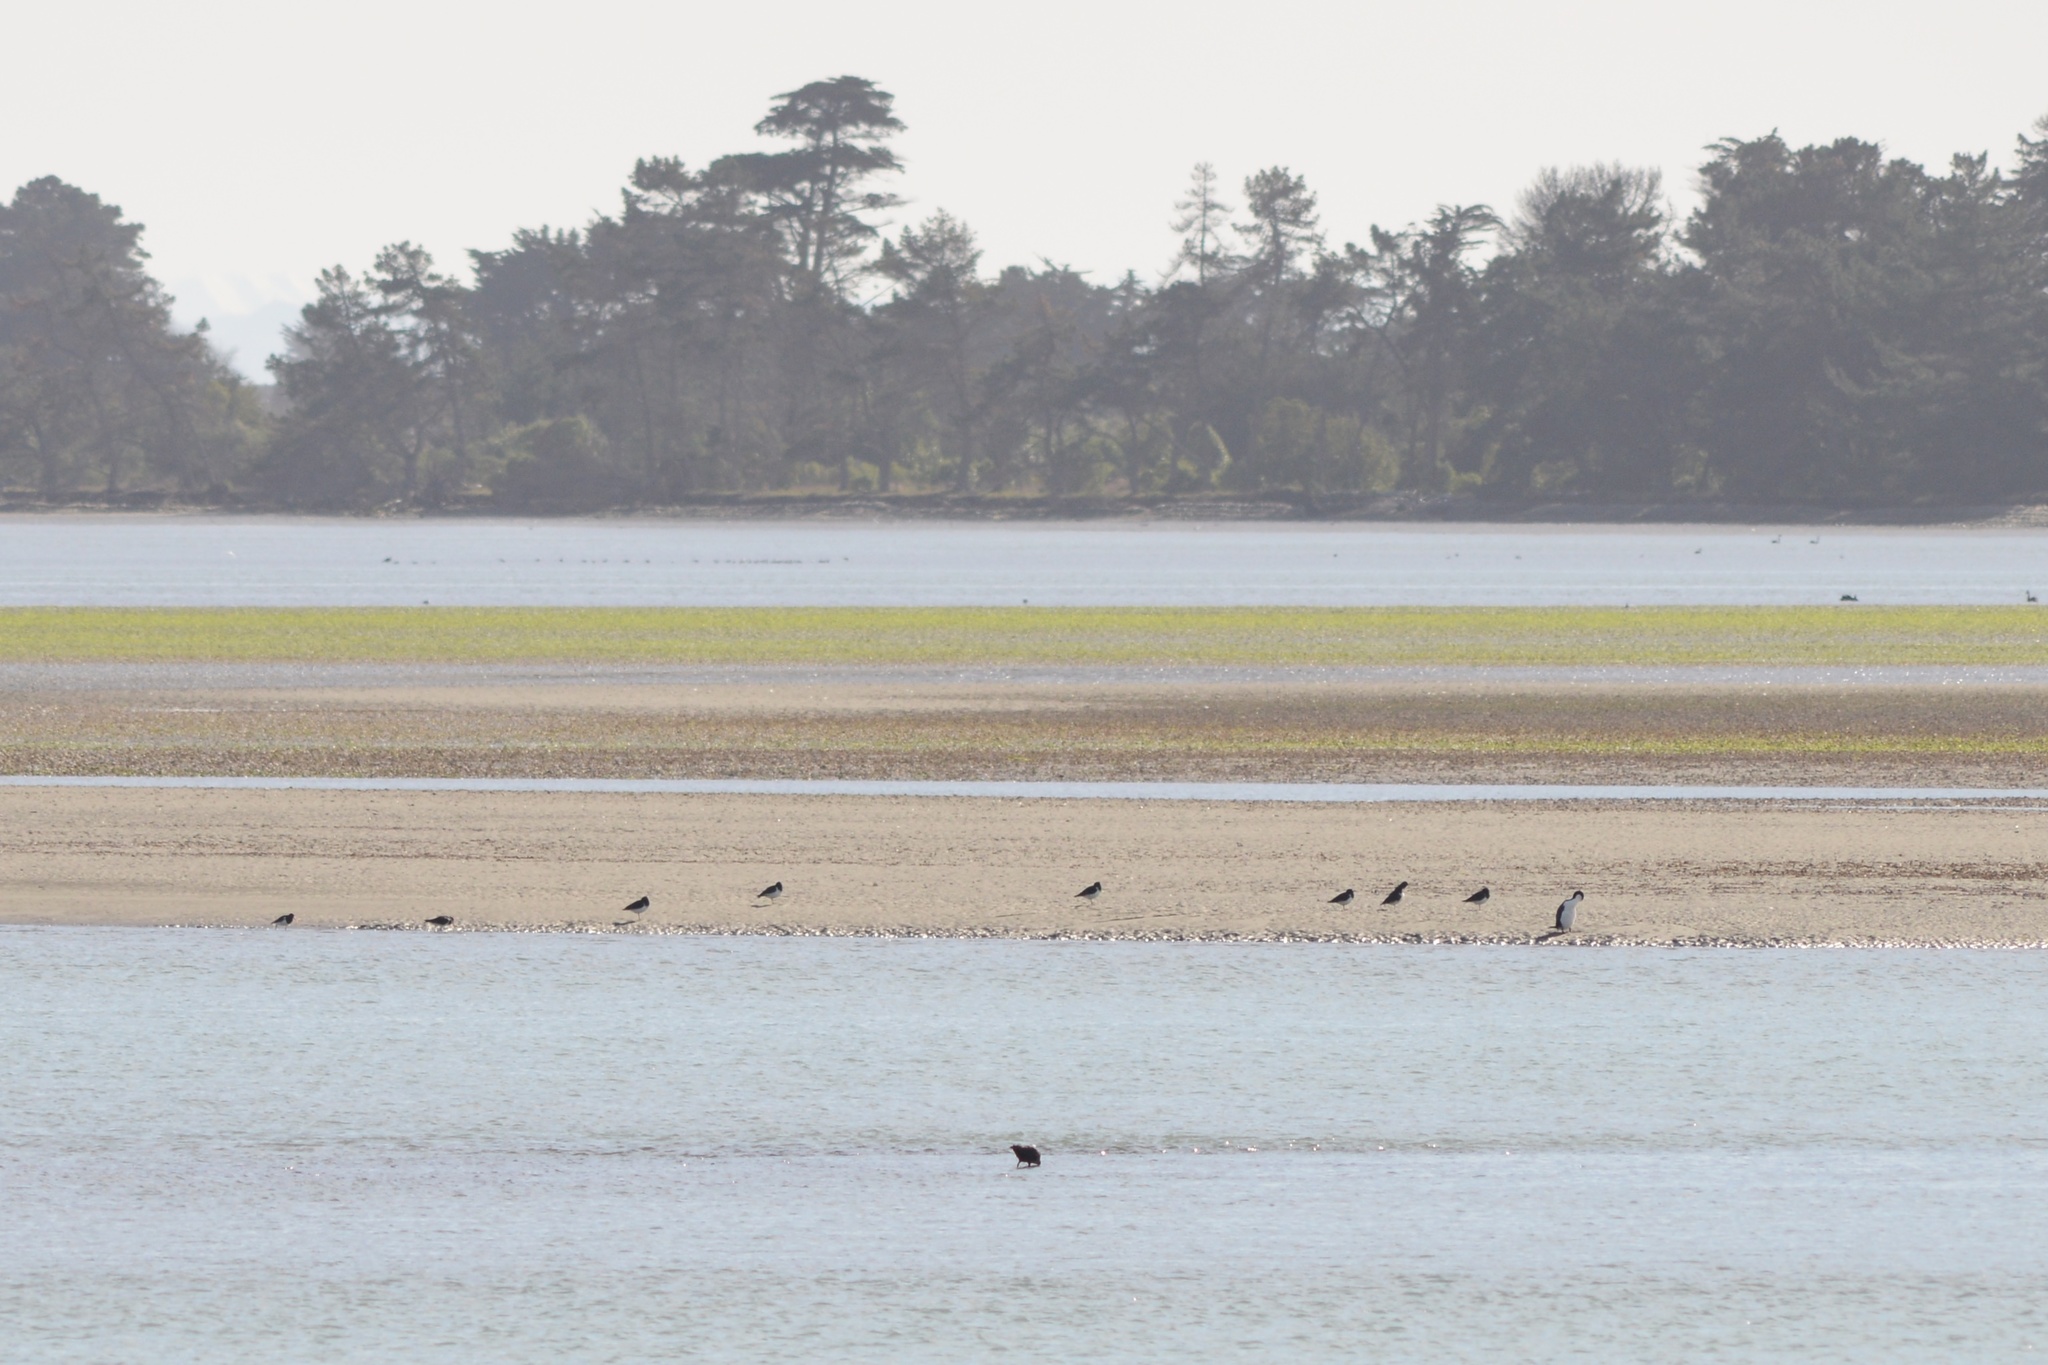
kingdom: Animalia
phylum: Chordata
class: Aves
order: Suliformes
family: Phalacrocoracidae
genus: Phalacrocorax
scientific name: Phalacrocorax varius
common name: Pied cormorant
